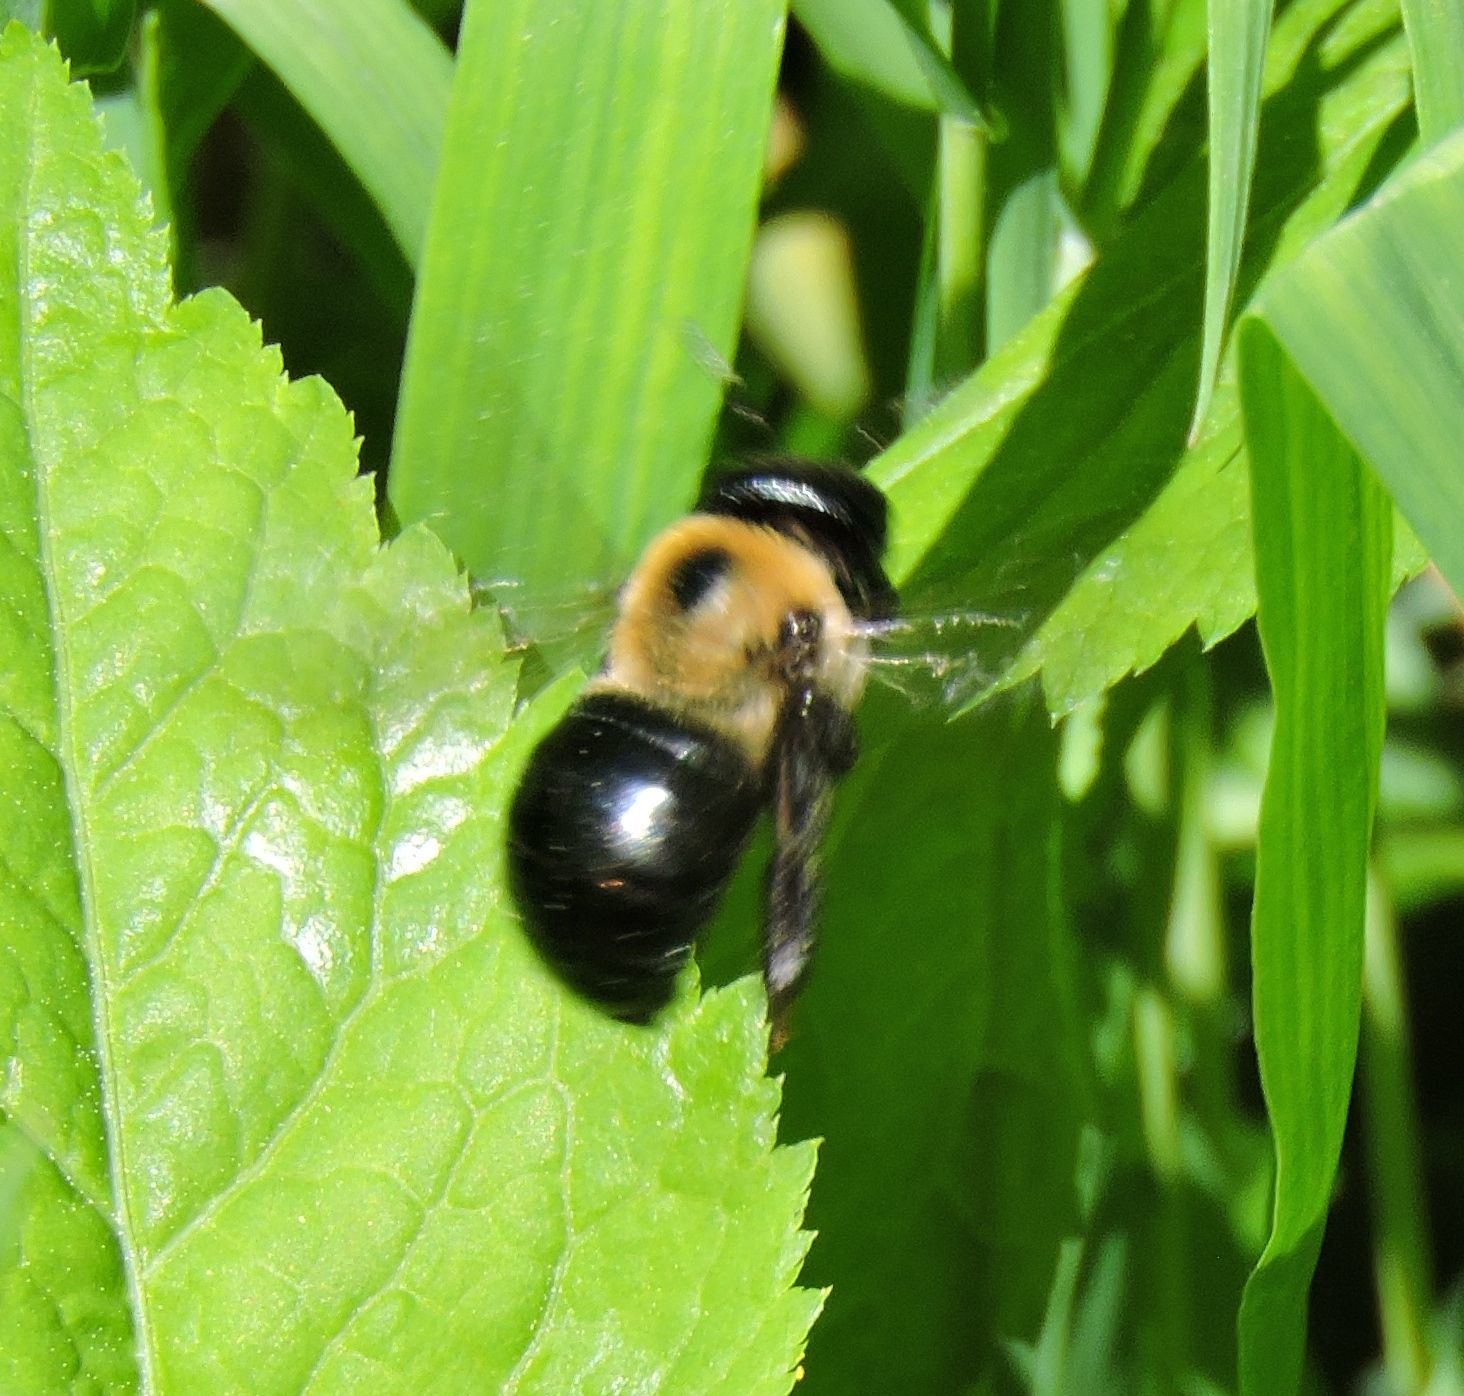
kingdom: Animalia
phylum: Arthropoda
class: Insecta
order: Hymenoptera
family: Apidae
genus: Xylocopa
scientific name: Xylocopa virginica
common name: Carpenter bee
